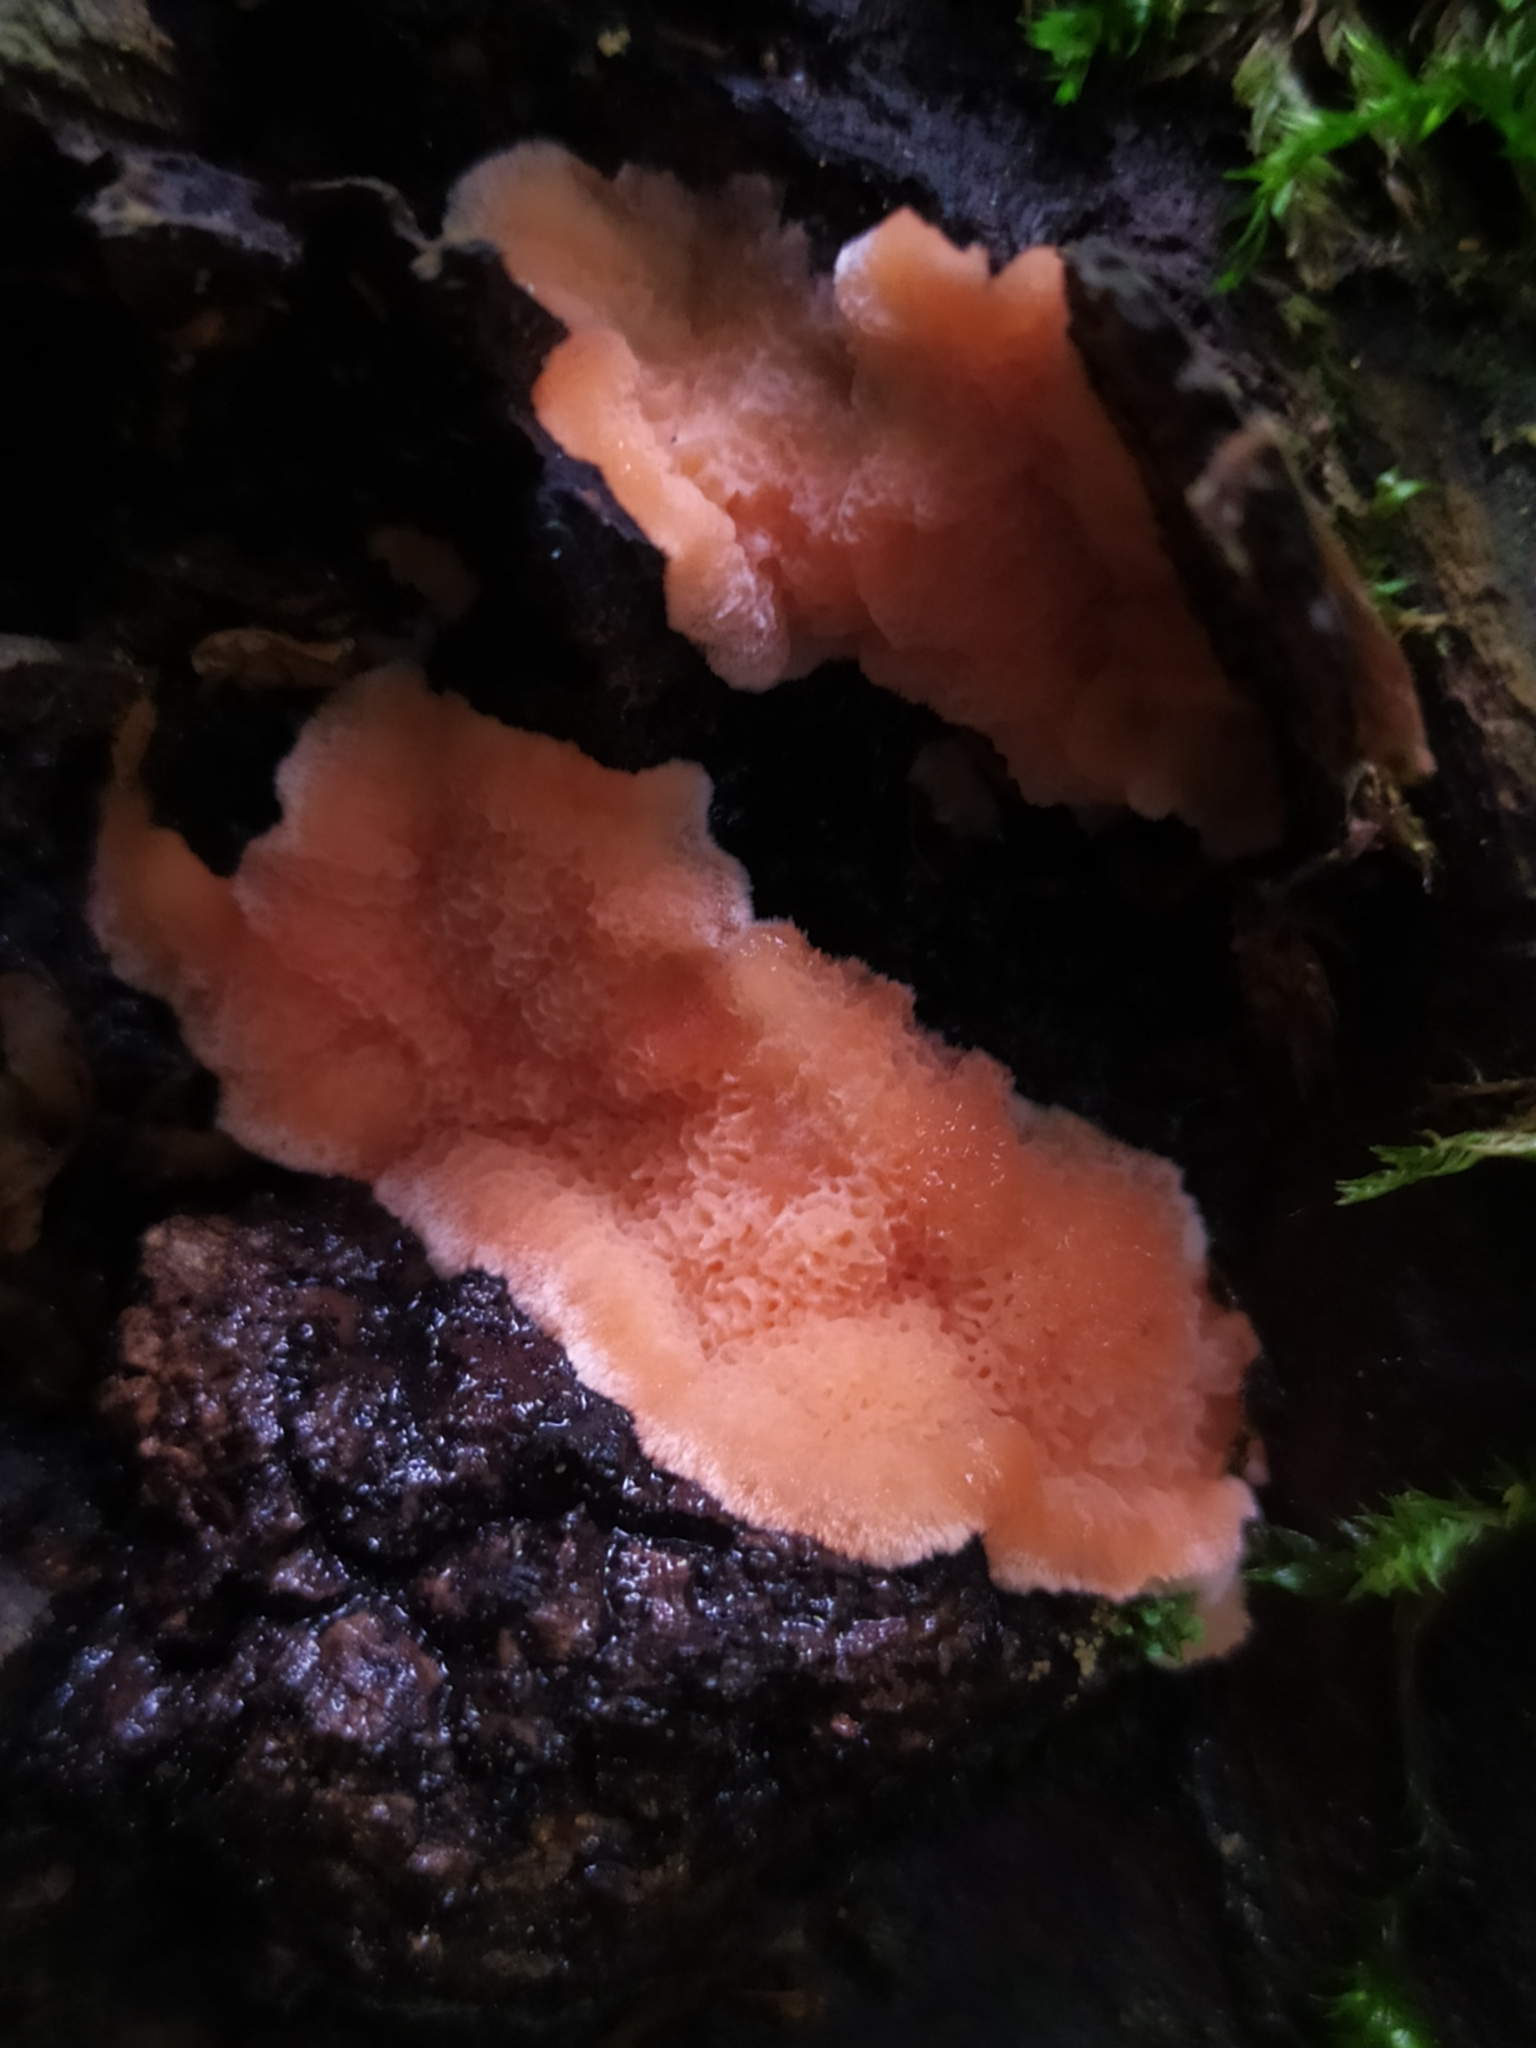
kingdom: Fungi
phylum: Basidiomycota
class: Agaricomycetes
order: Polyporales
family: Polyporaceae
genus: Rhodonia
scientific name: Rhodonia placenta
